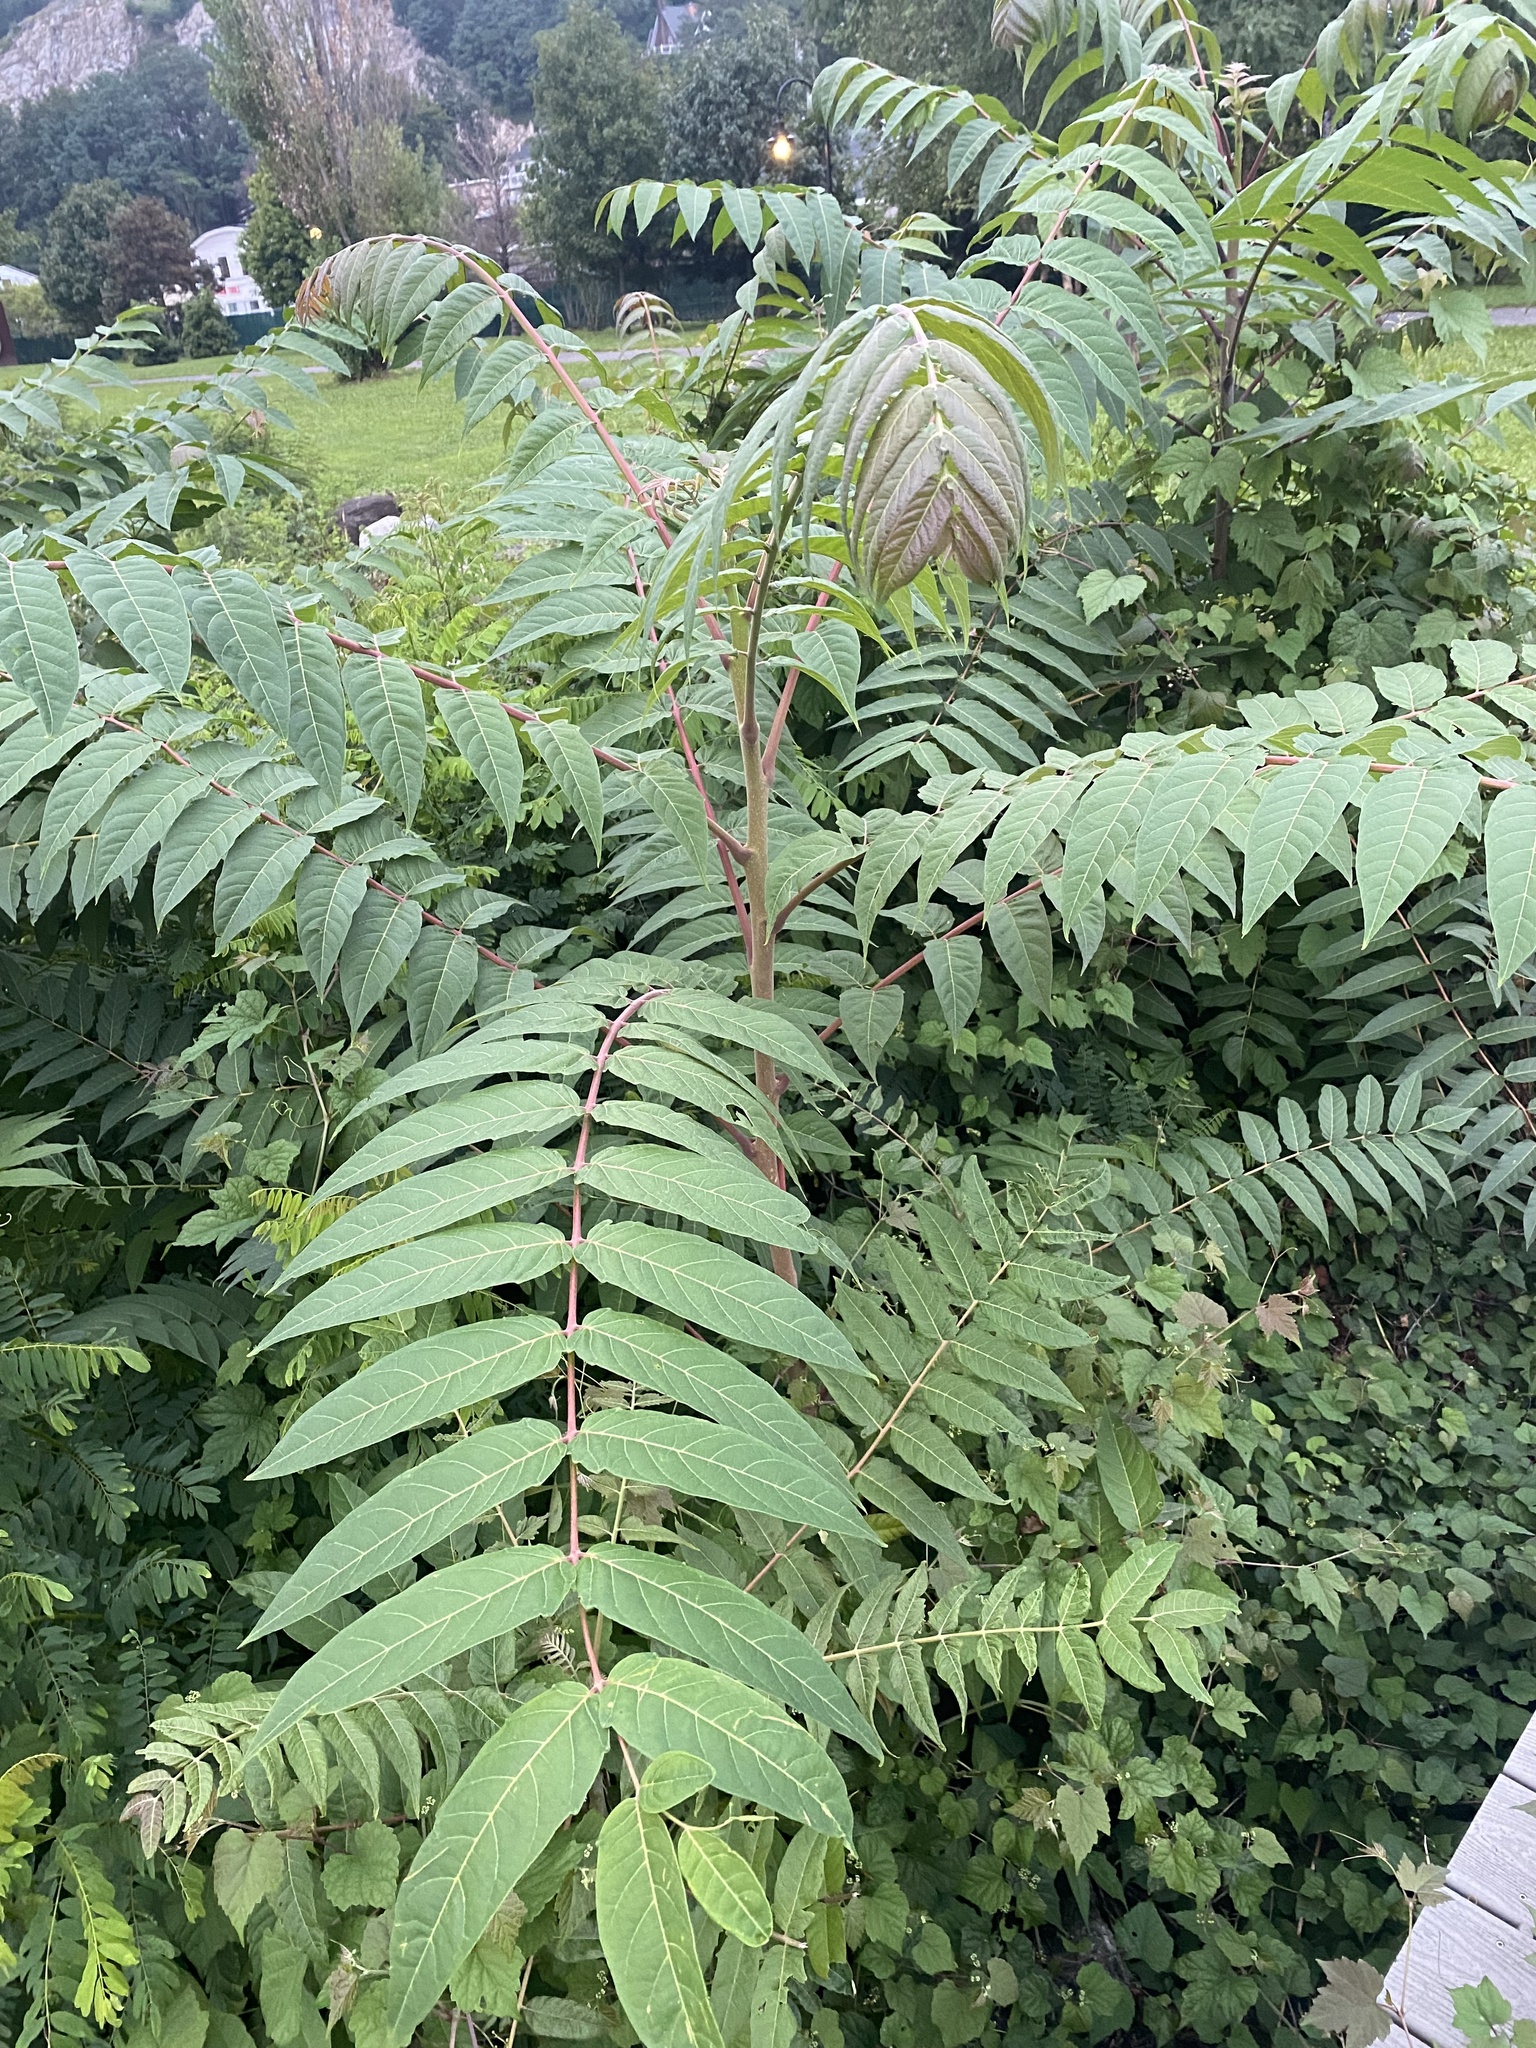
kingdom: Plantae
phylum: Tracheophyta
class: Magnoliopsida
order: Sapindales
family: Simaroubaceae
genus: Ailanthus
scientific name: Ailanthus altissima
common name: Tree-of-heaven
